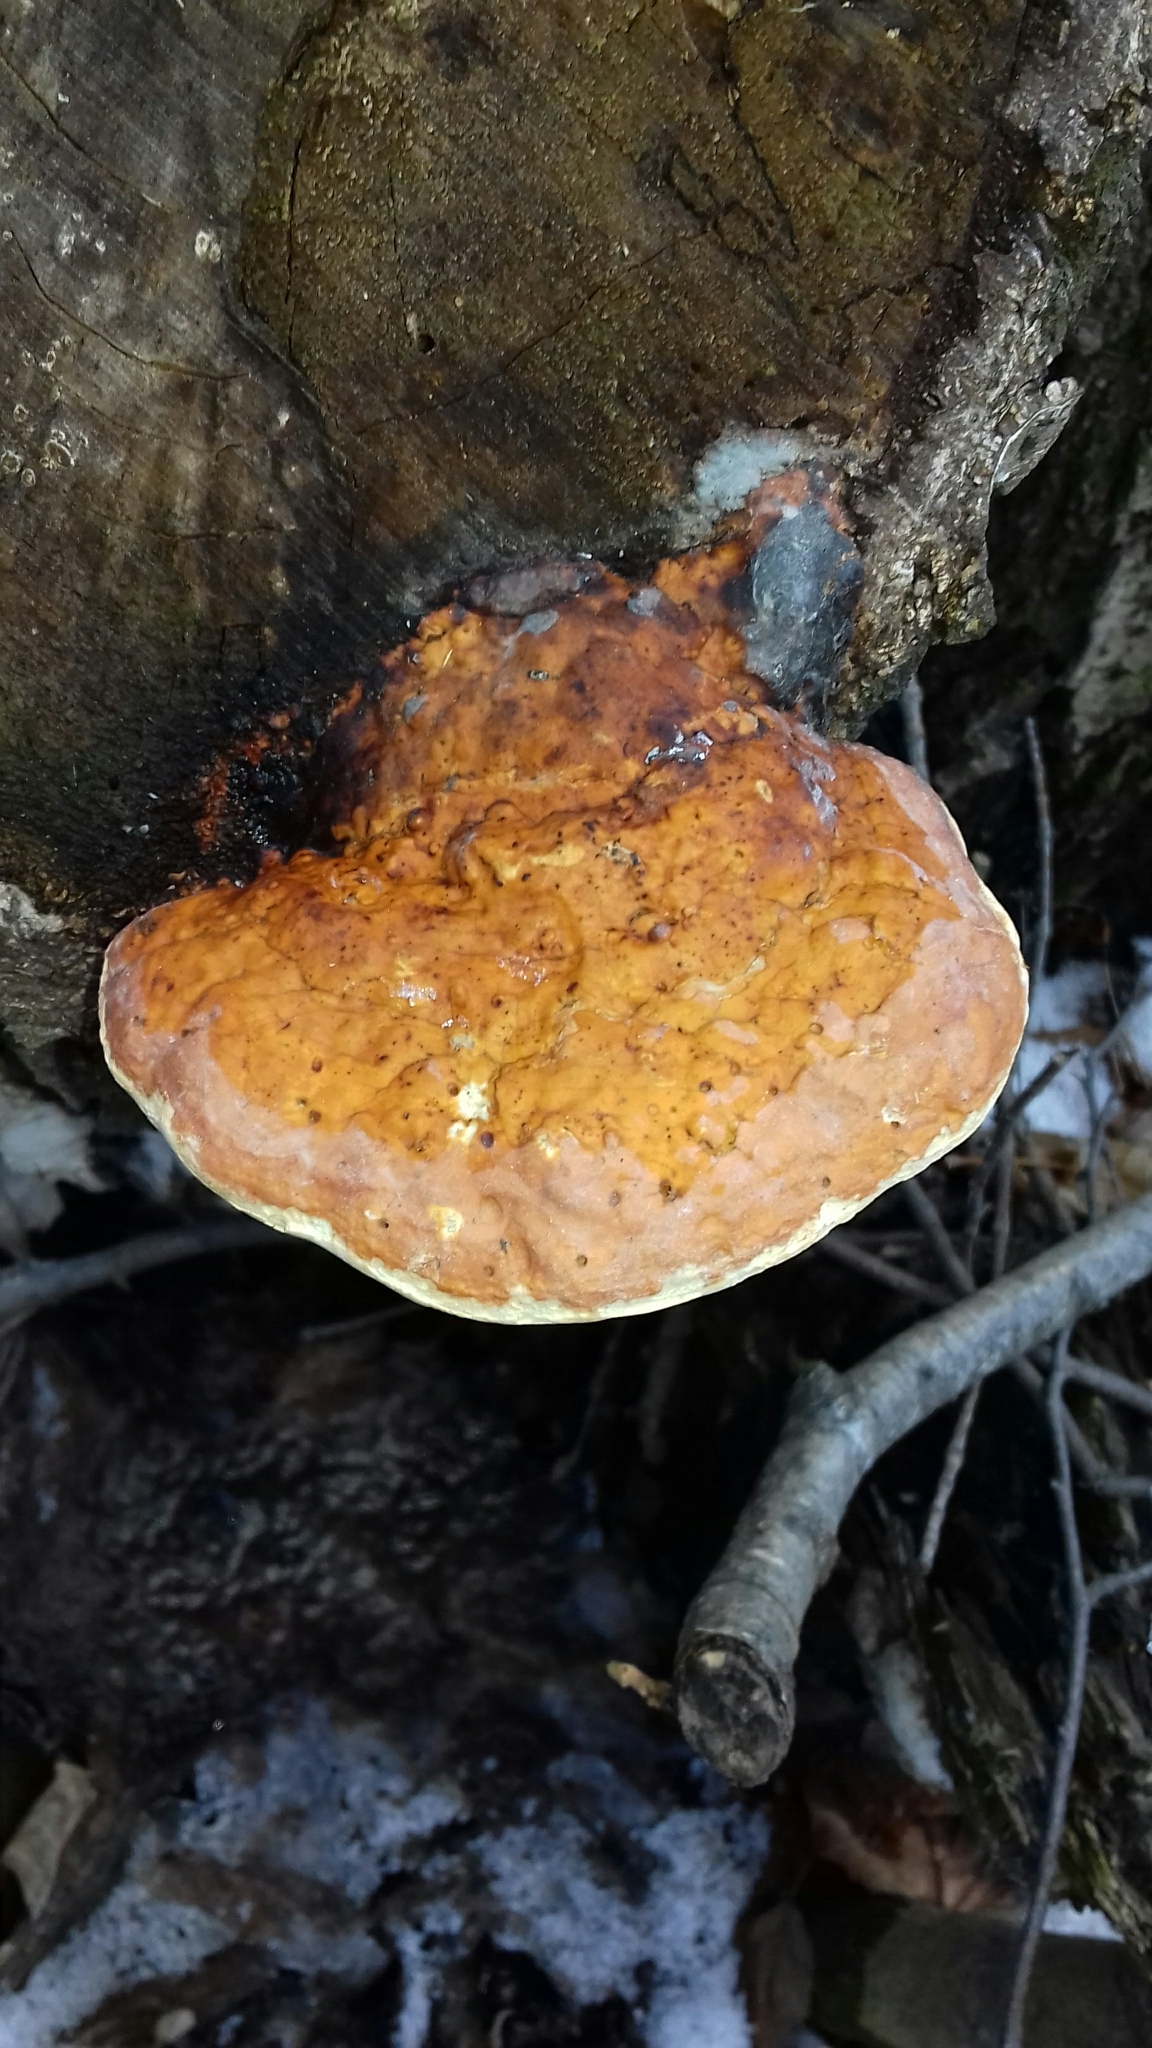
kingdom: Fungi
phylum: Basidiomycota
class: Agaricomycetes
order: Polyporales
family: Fomitopsidaceae
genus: Fomitopsis
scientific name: Fomitopsis pinicola
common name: Red-belted bracket
